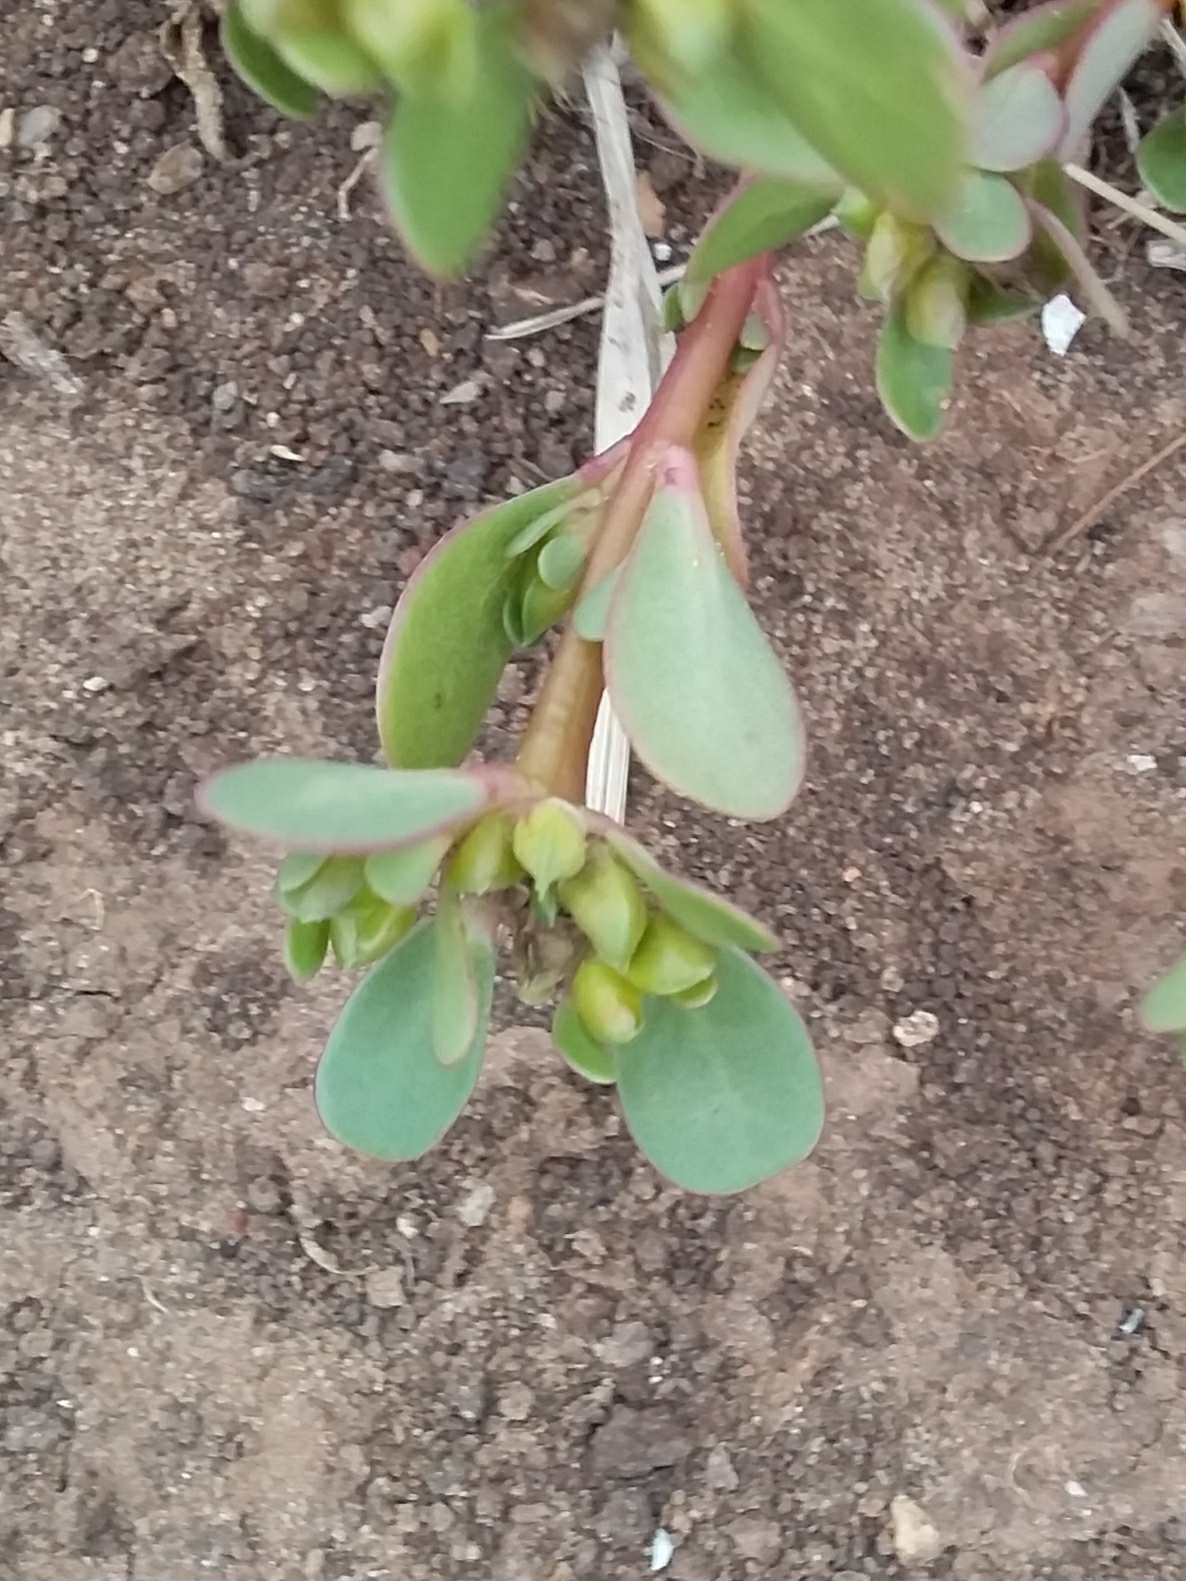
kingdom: Plantae
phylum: Tracheophyta
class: Magnoliopsida
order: Caryophyllales
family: Portulacaceae
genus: Portulaca
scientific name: Portulaca oleracea
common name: Common purslane
